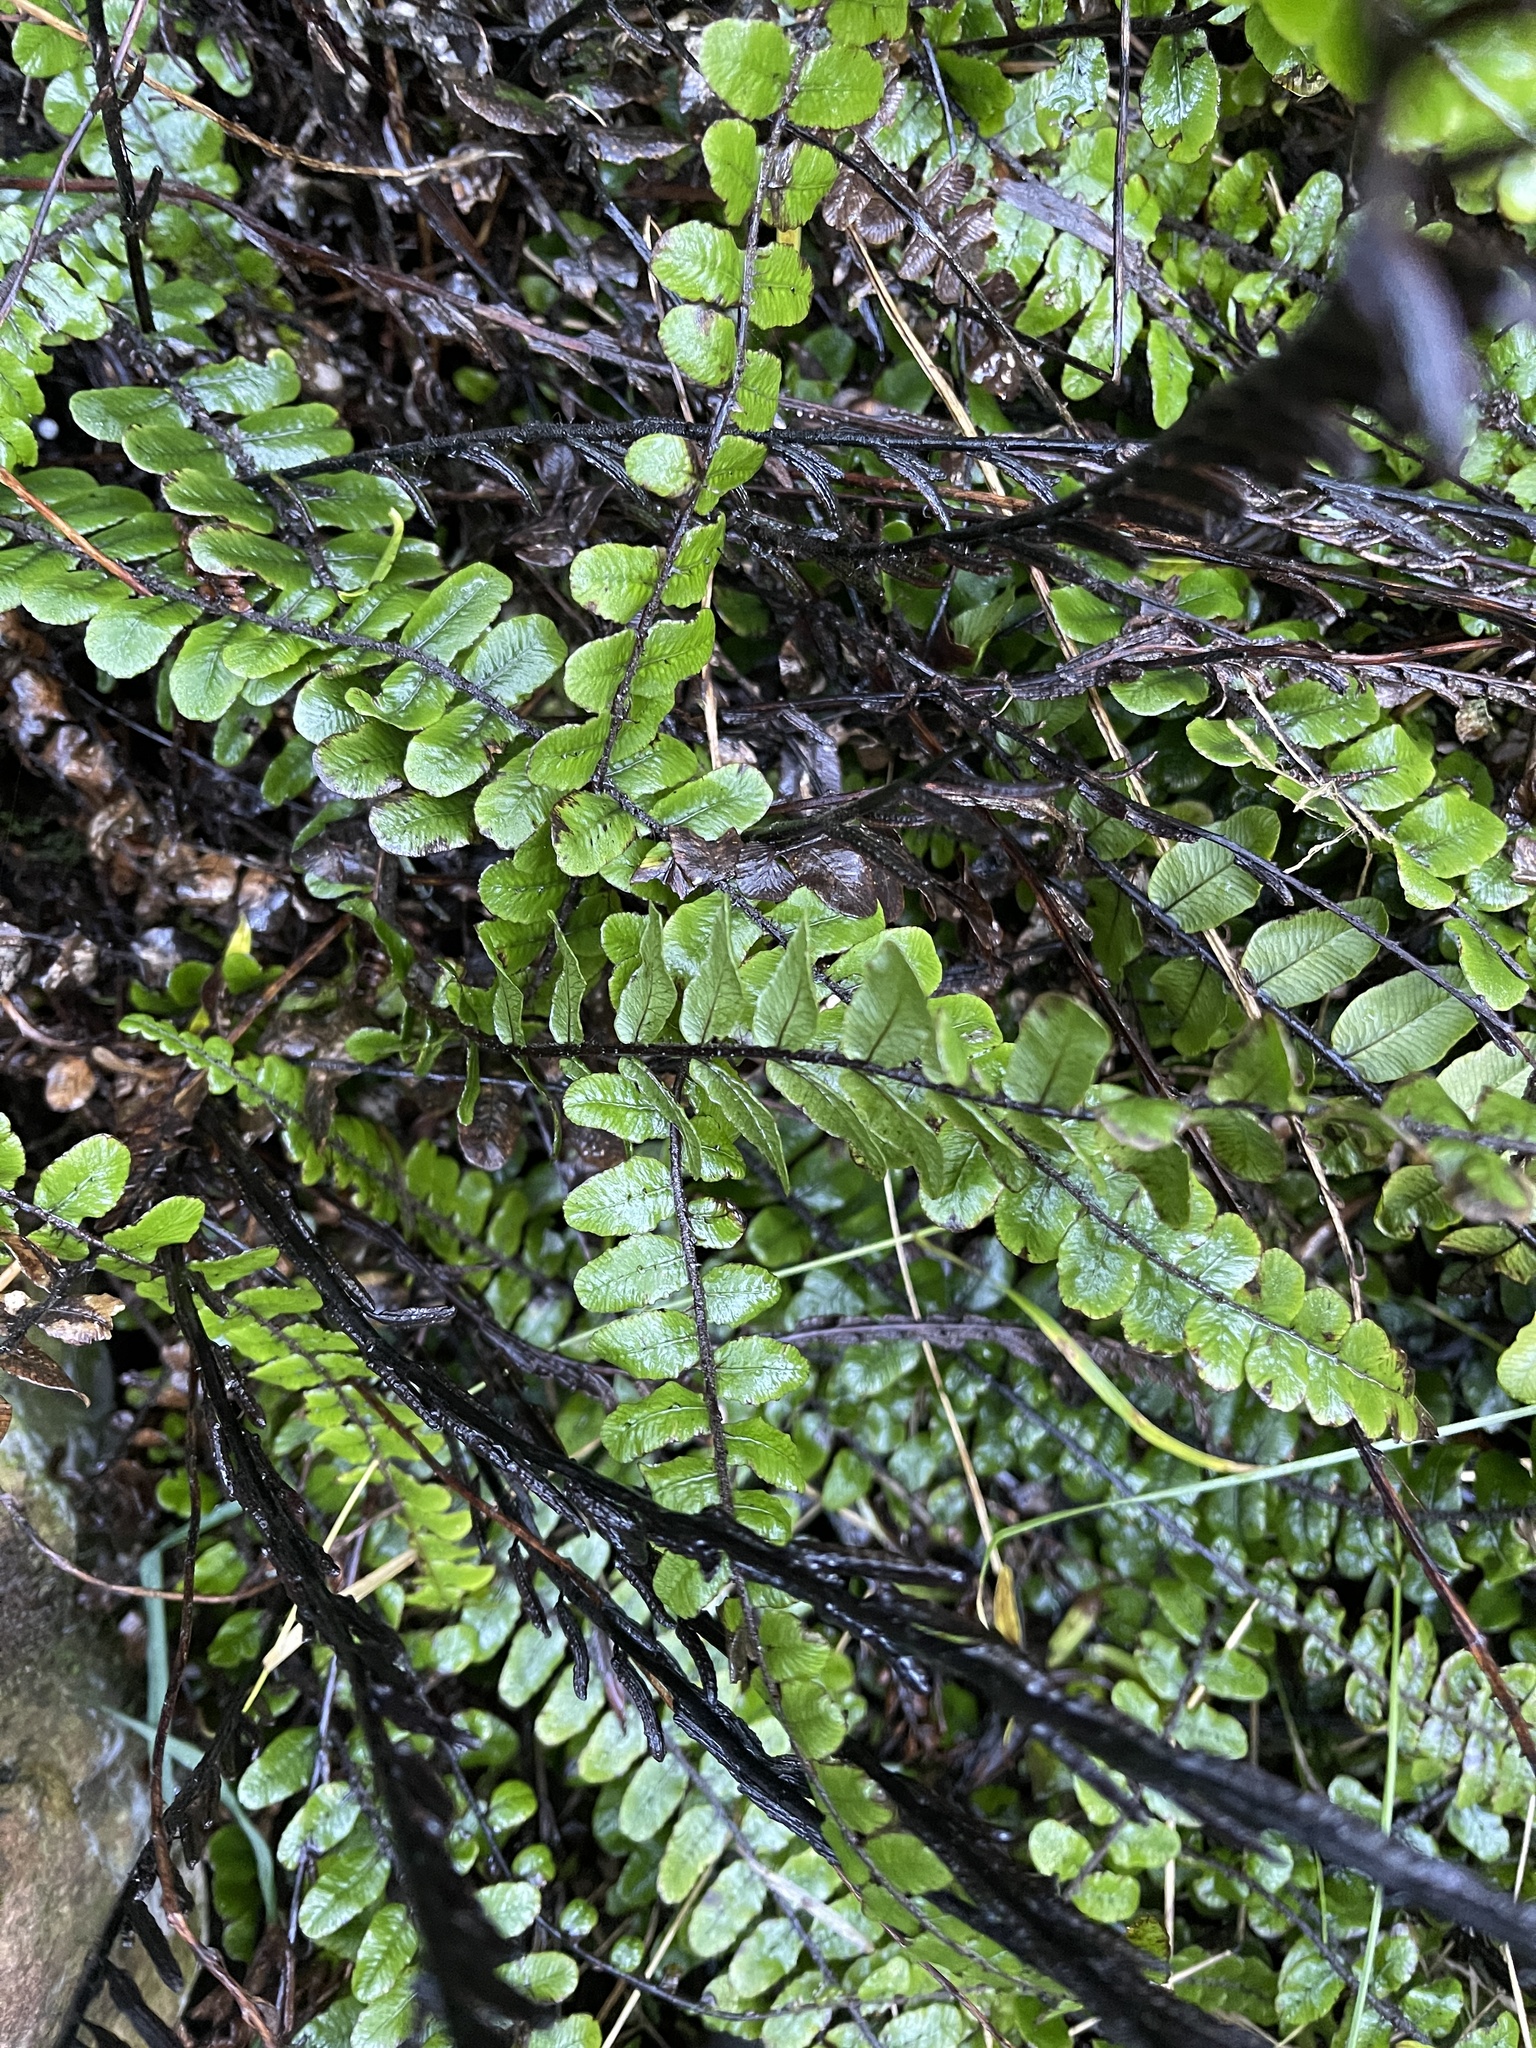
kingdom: Plantae
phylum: Tracheophyta
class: Polypodiopsida
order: Polypodiales
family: Blechnaceae
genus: Cranfillia
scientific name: Cranfillia fluviatilis
